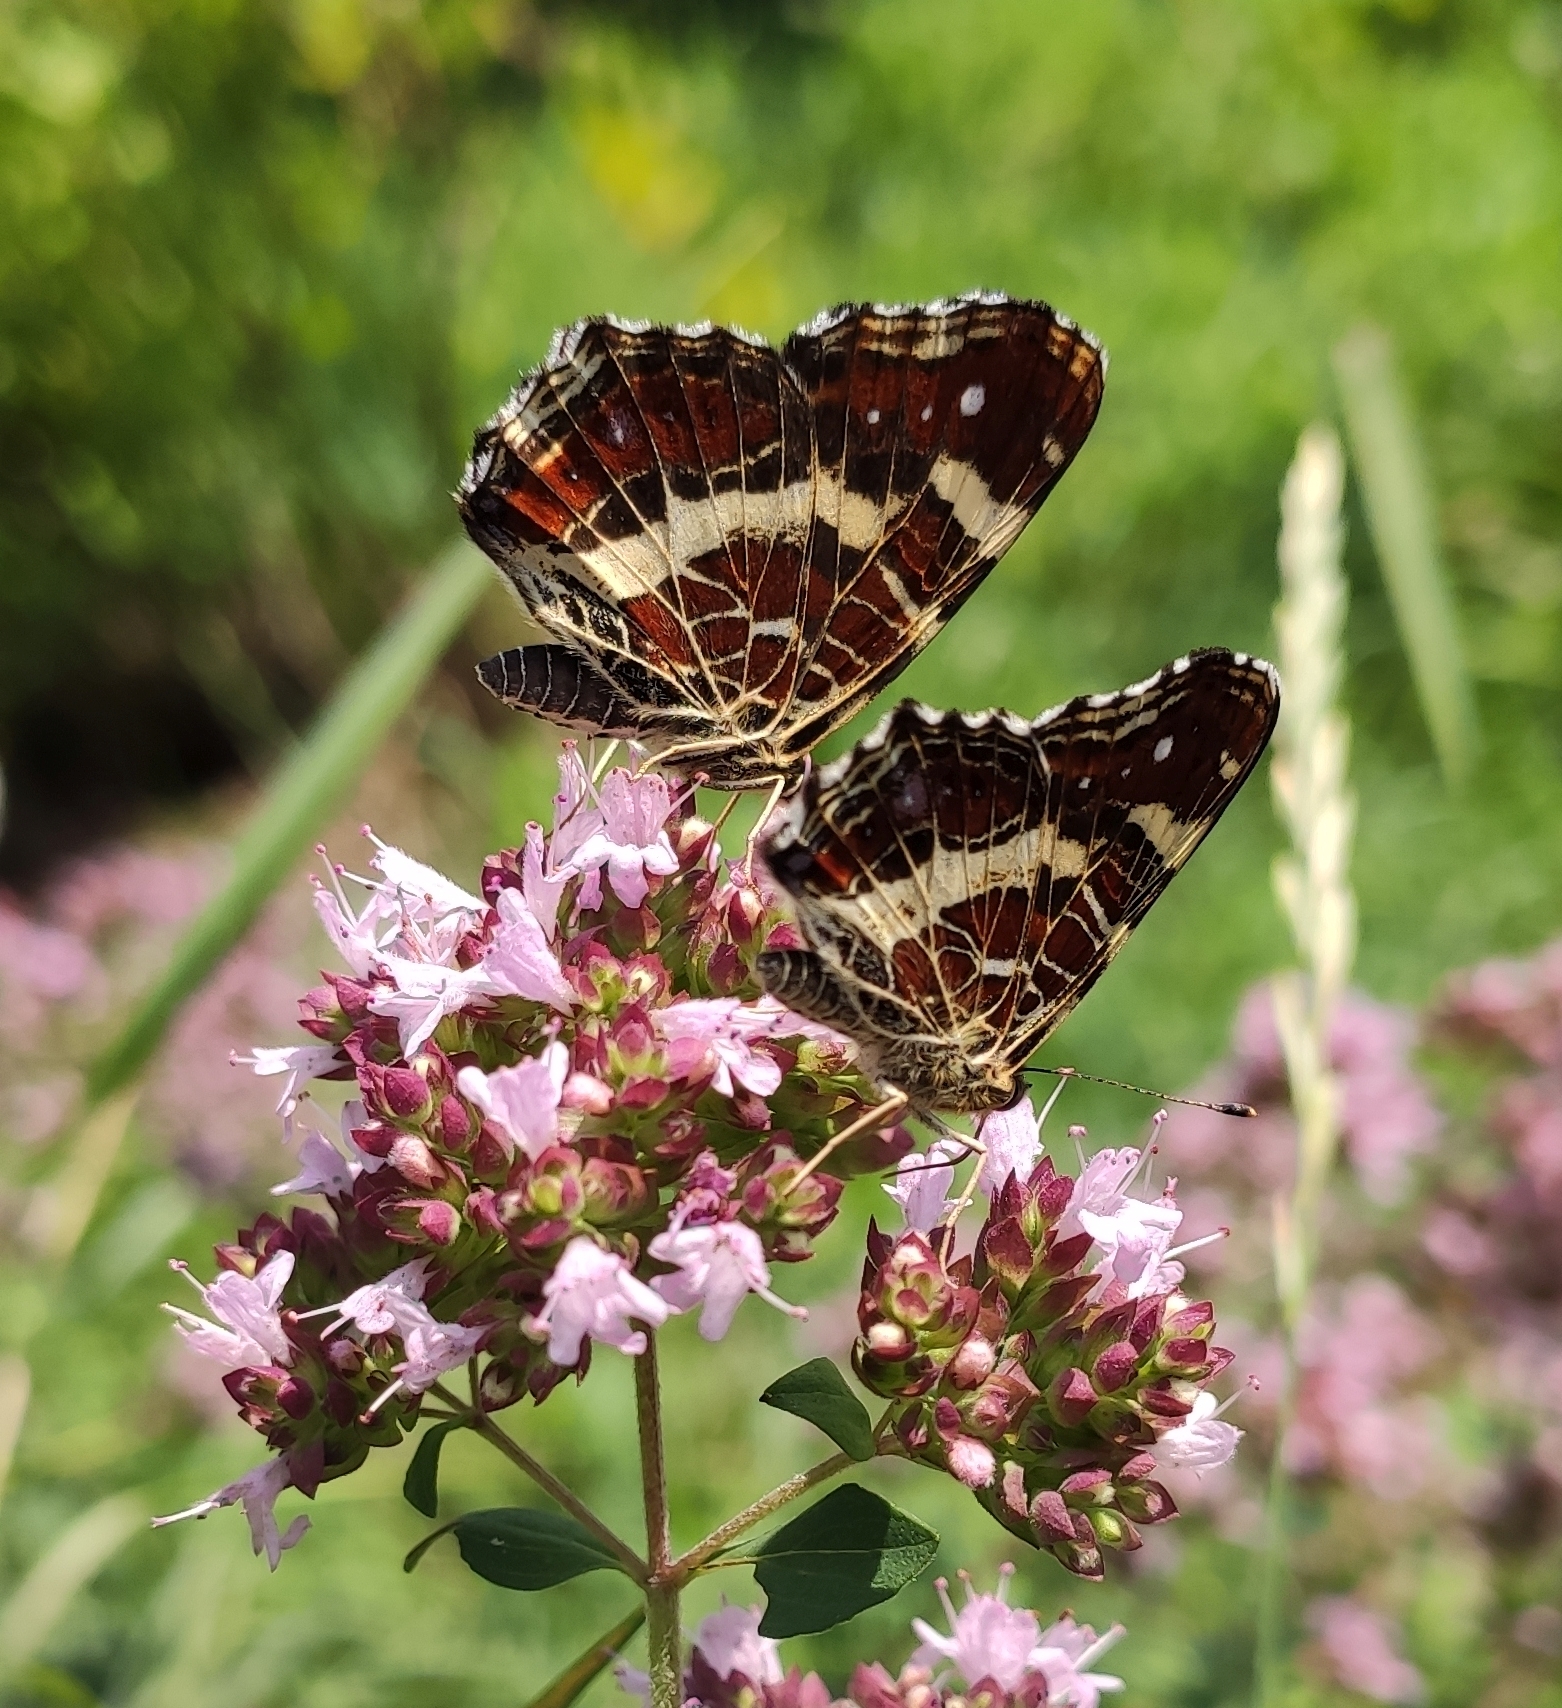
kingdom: Animalia
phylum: Arthropoda
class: Insecta
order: Lepidoptera
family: Nymphalidae
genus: Araschnia
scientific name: Araschnia levana
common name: Map butterfly
